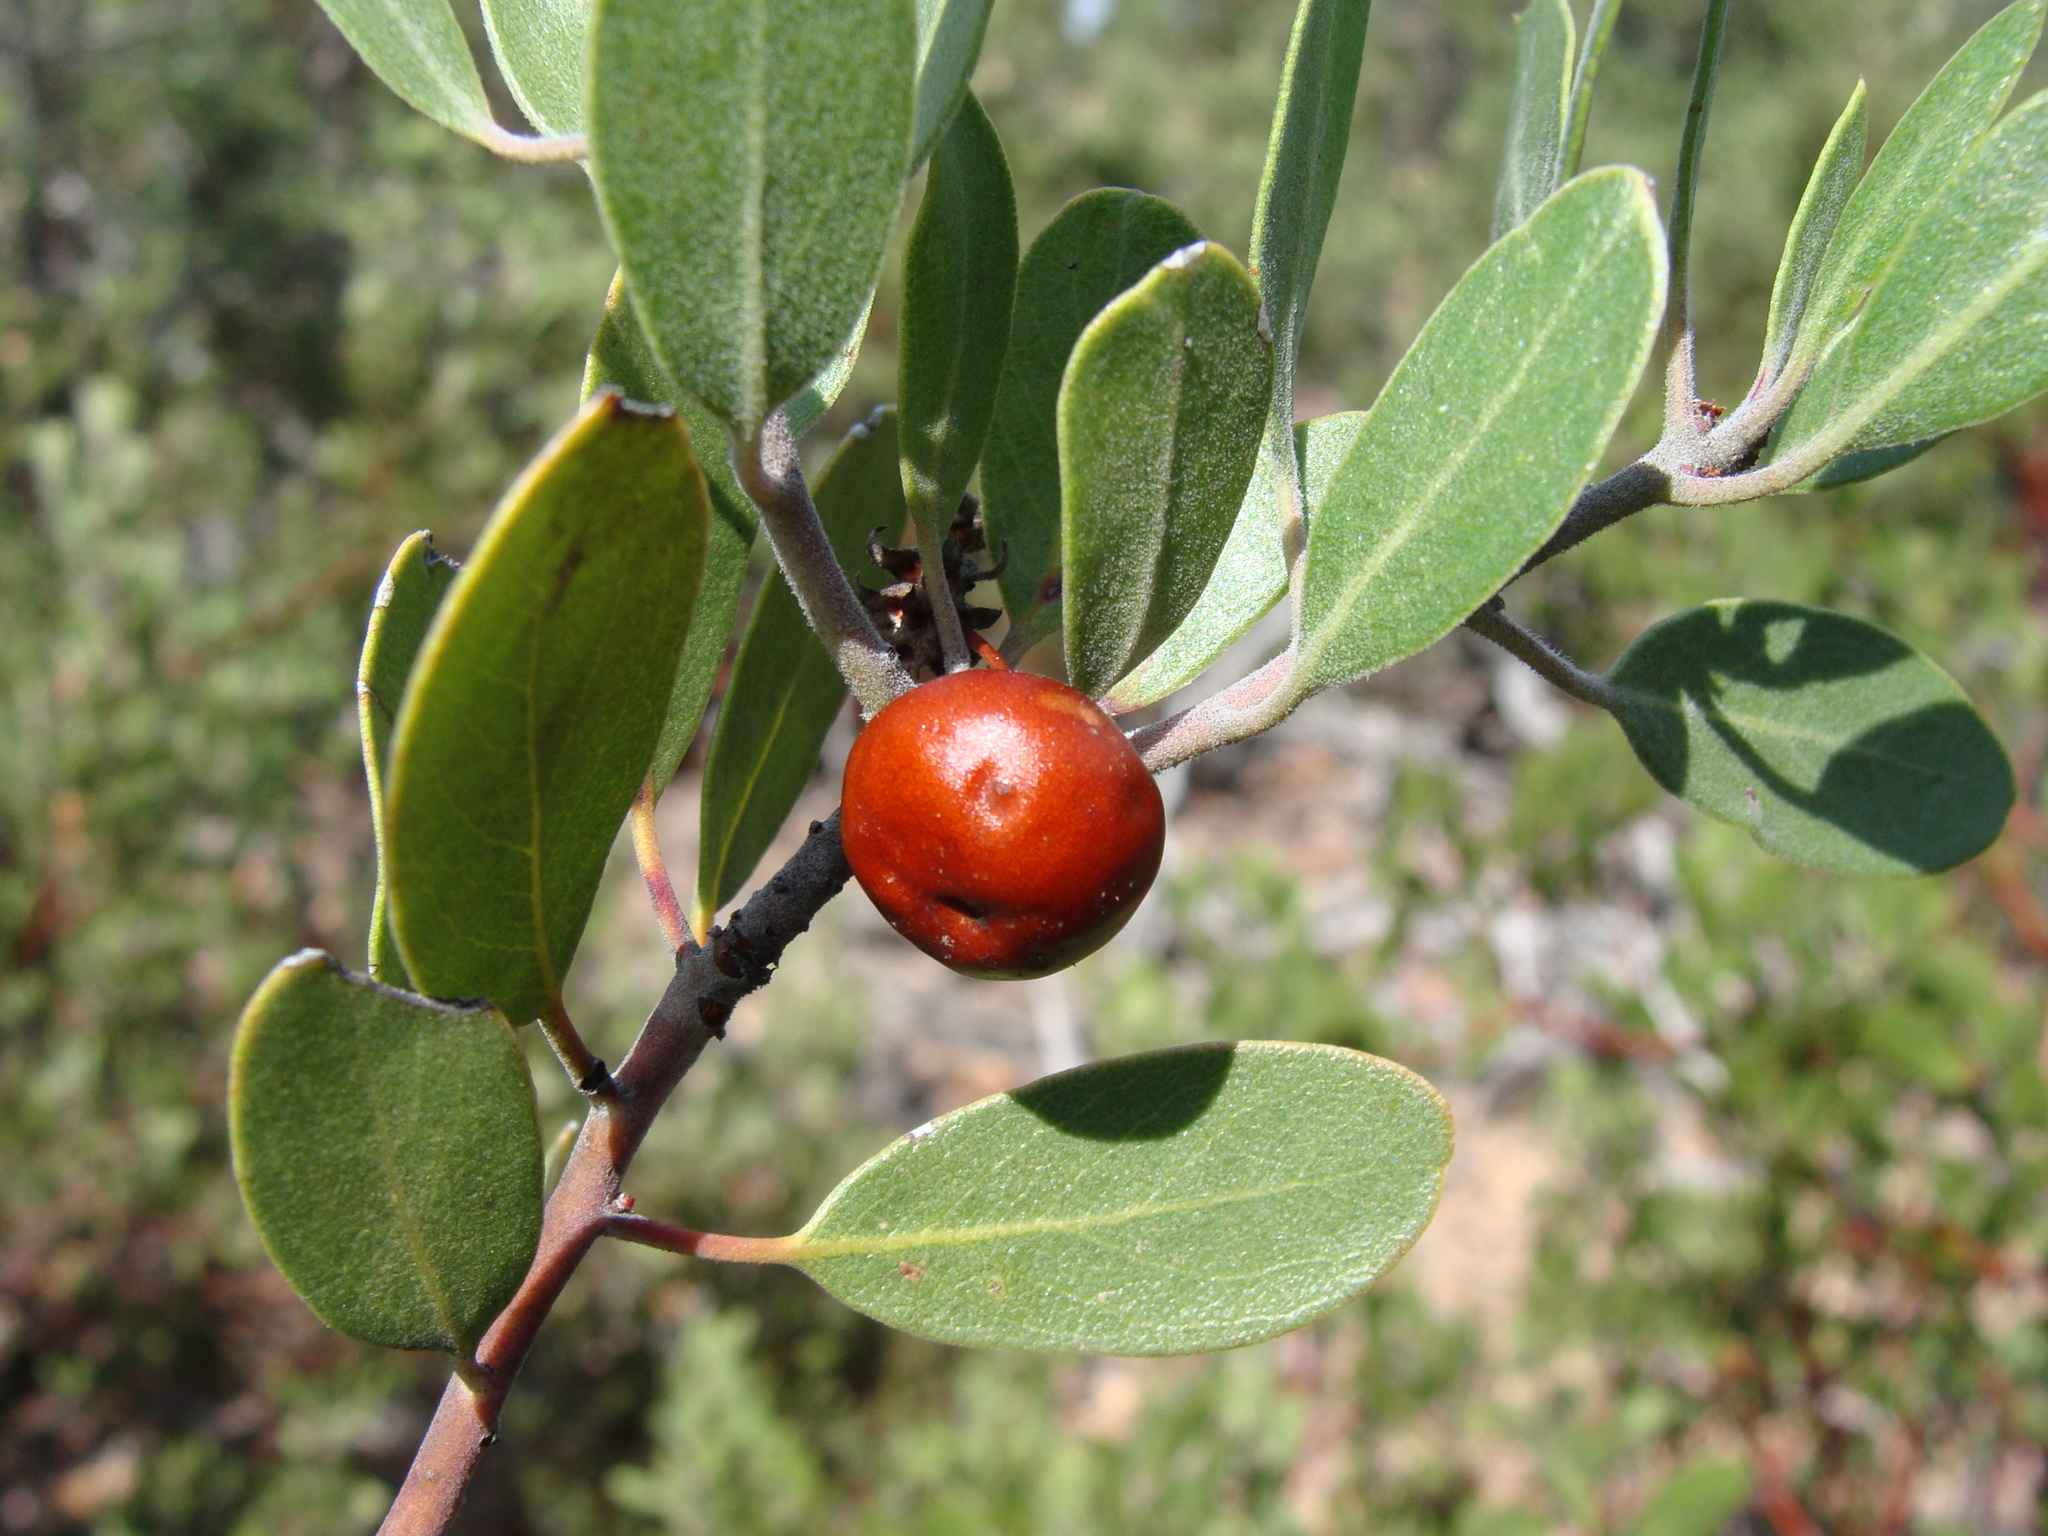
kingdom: Plantae
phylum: Tracheophyta
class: Magnoliopsida
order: Ericales
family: Ericaceae
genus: Arctostaphylos
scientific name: Arctostaphylos pungens
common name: Mexican manzanita
